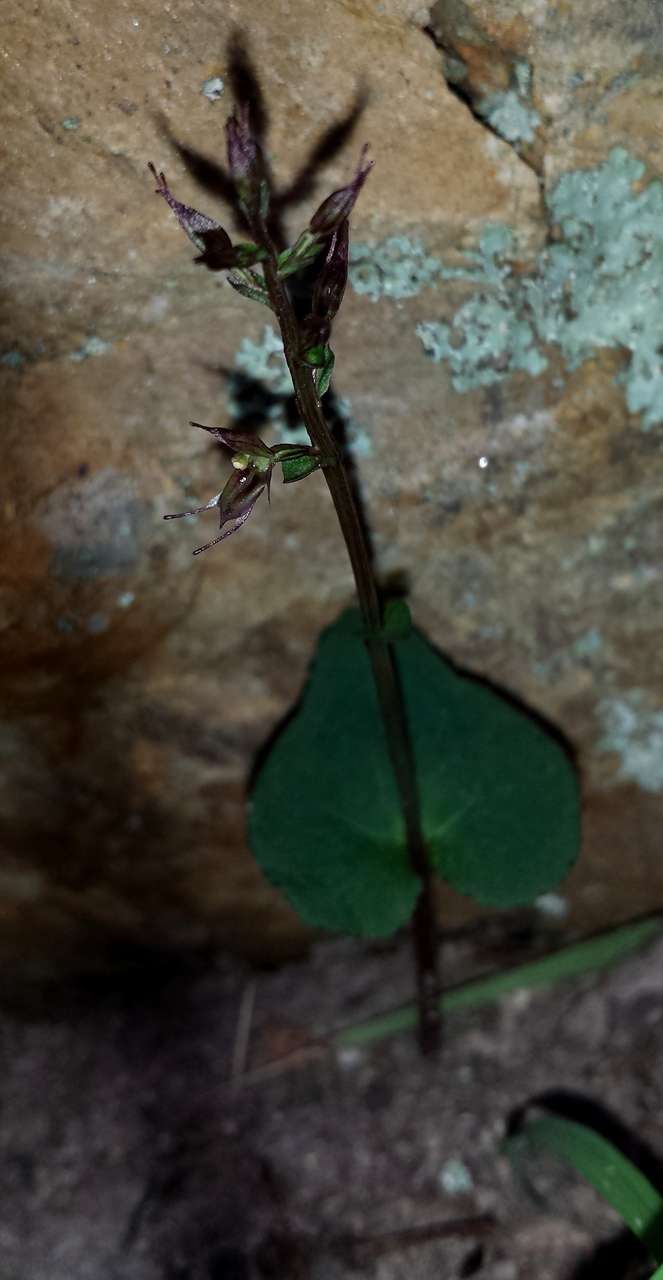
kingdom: Plantae
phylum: Tracheophyta
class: Liliopsida
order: Asparagales
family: Orchidaceae
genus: Acianthus
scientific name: Acianthus pusillus
